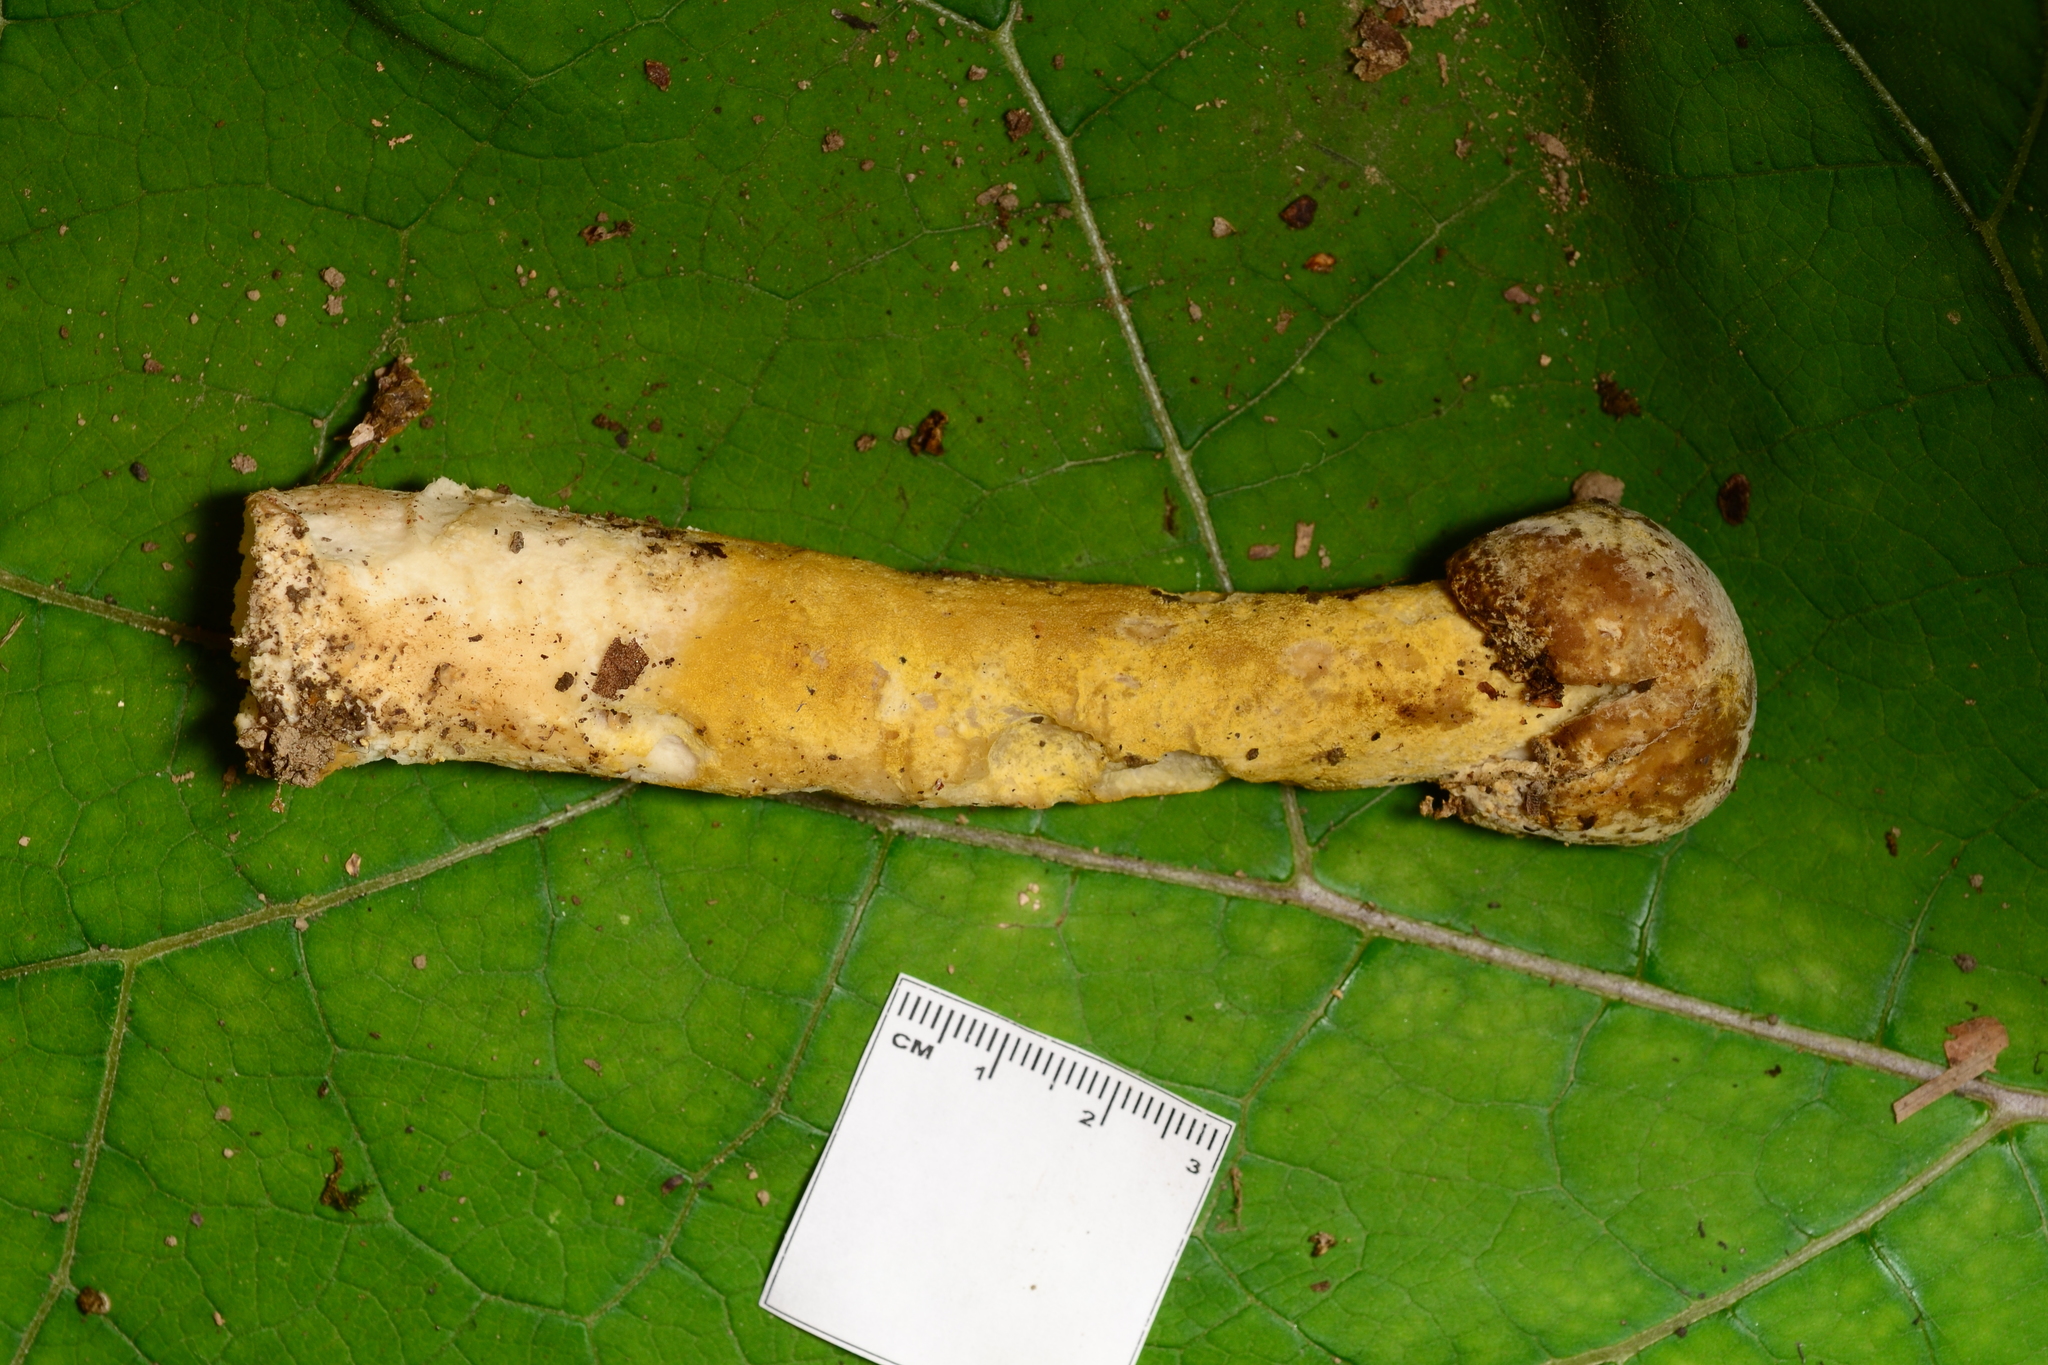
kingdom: Fungi
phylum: Ascomycota
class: Sordariomycetes
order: Hypocreales
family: Hypocreaceae
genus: Hypomyces
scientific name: Hypomyces hyalinus
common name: Amanita mold
